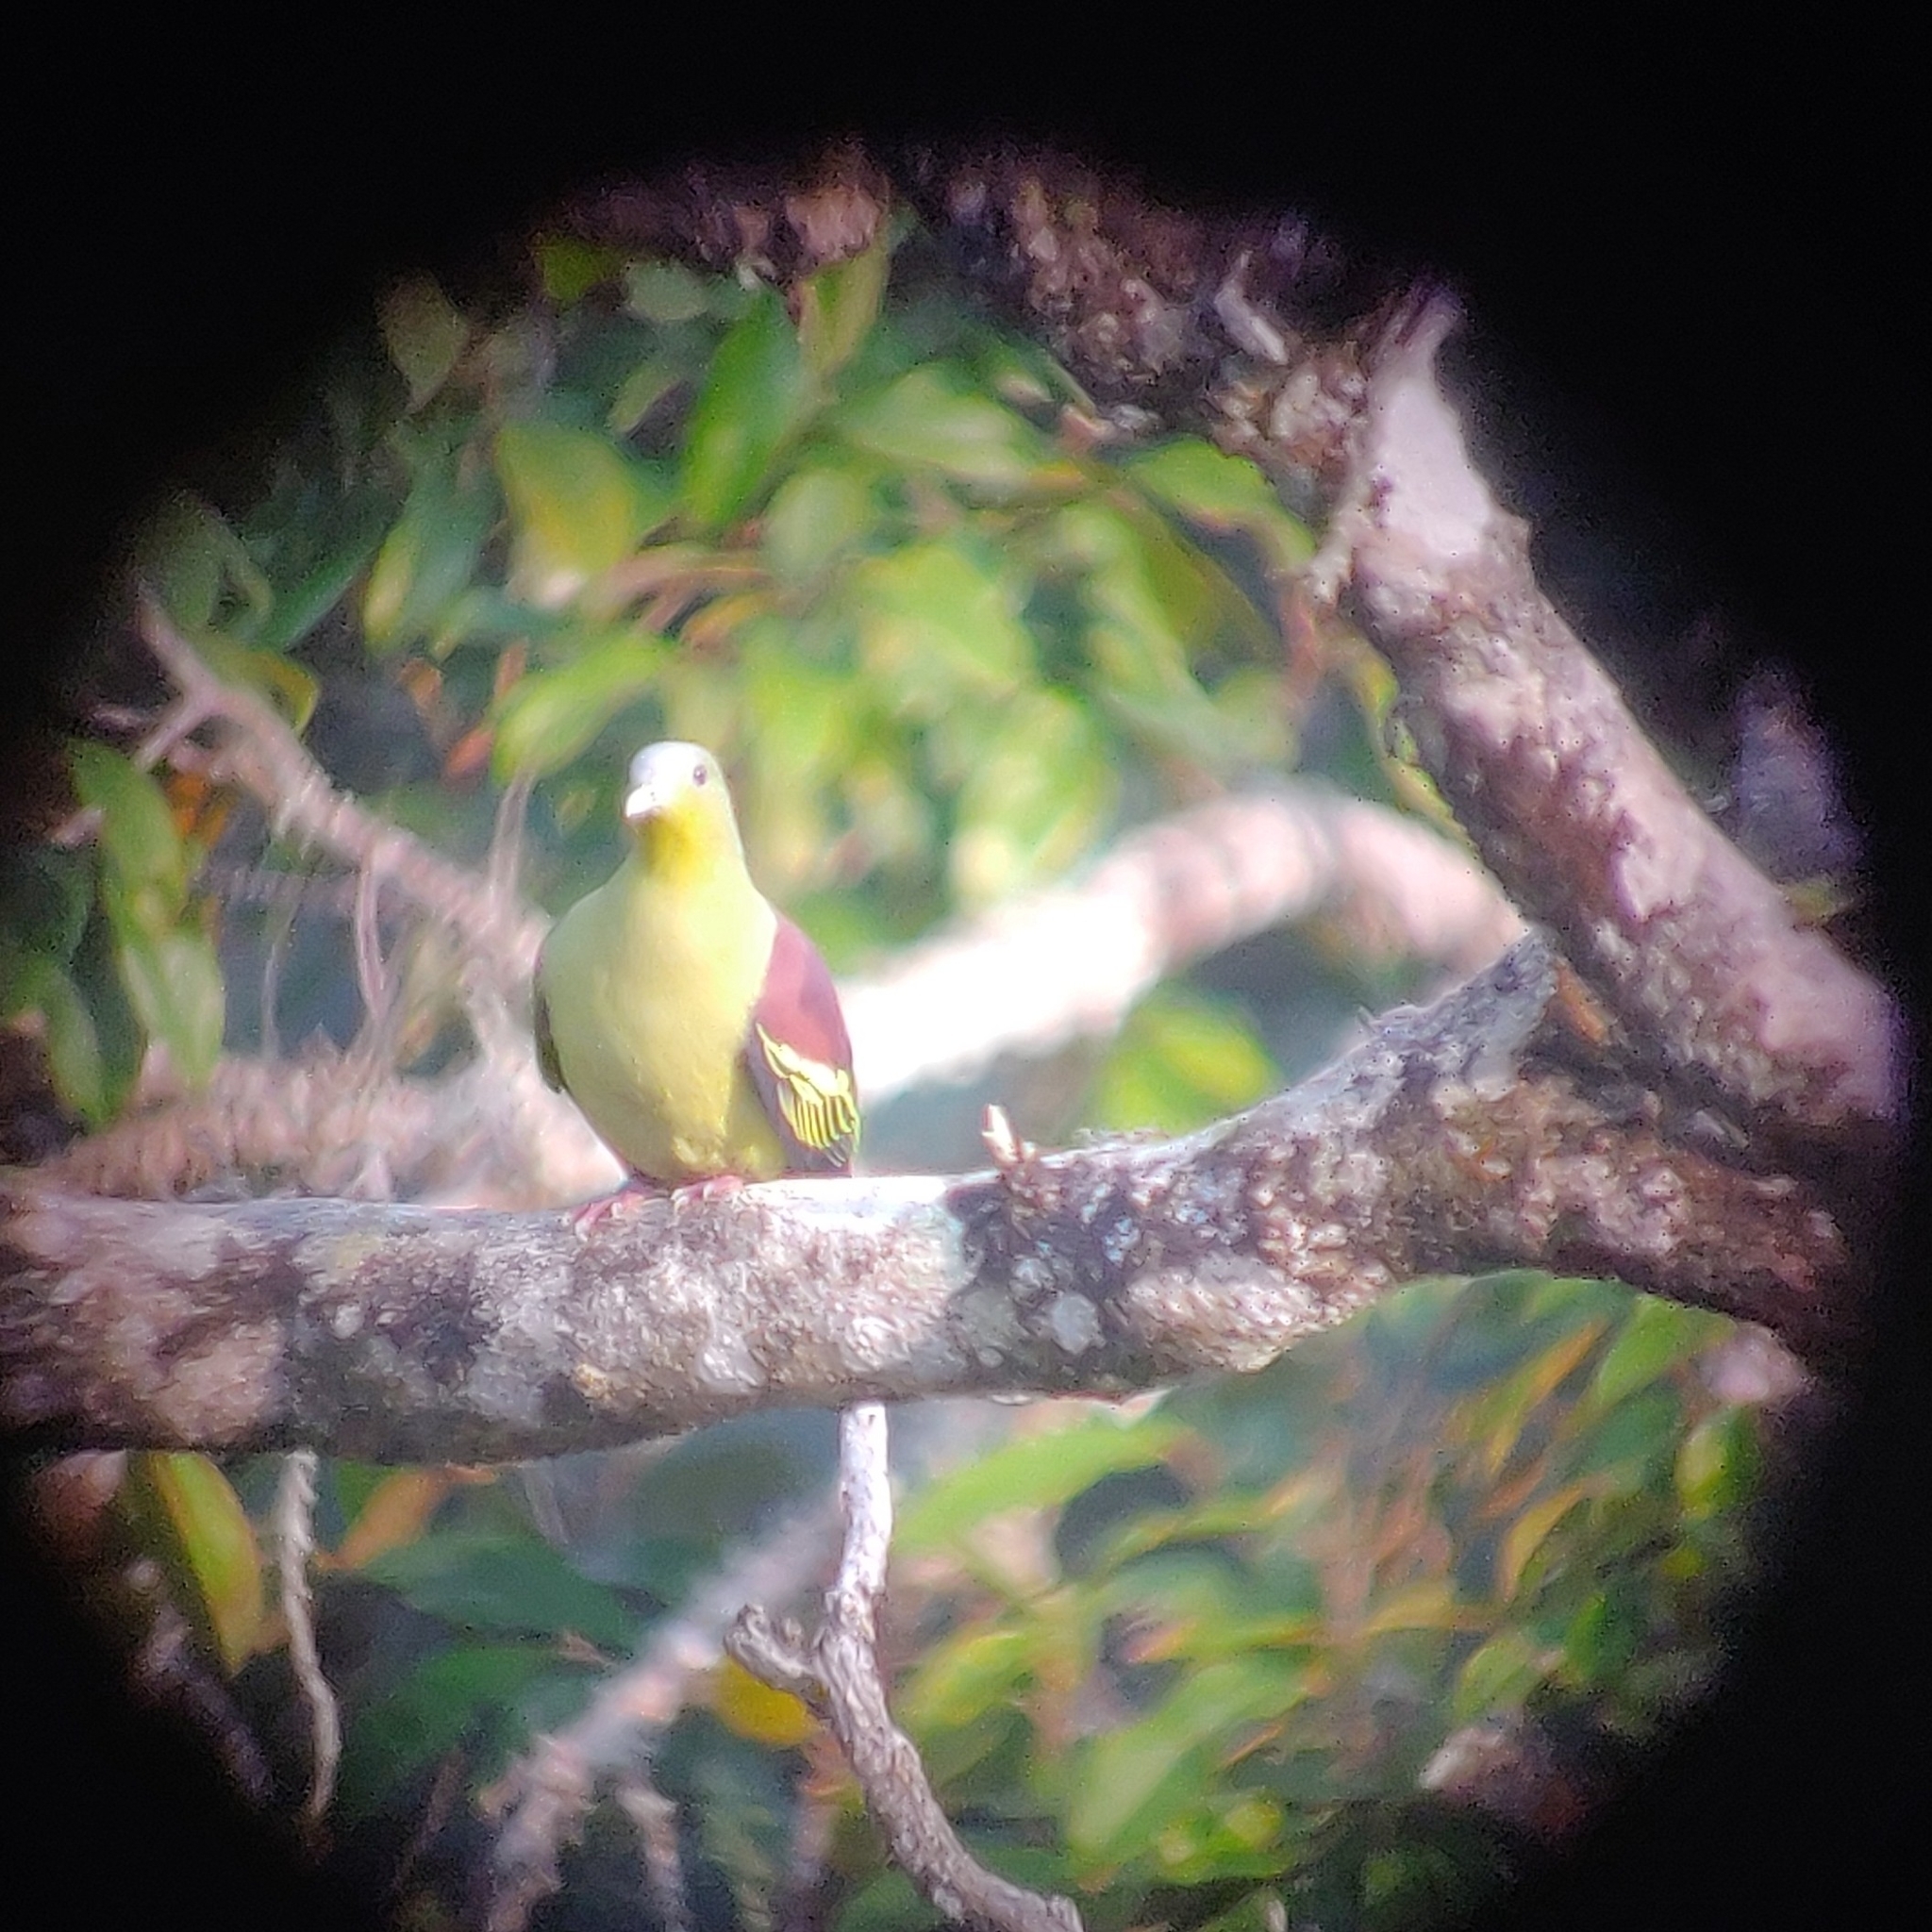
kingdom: Animalia
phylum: Chordata
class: Aves
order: Columbiformes
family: Columbidae
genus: Treron
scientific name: Treron affinis
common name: Grey-fronted green pigeon
